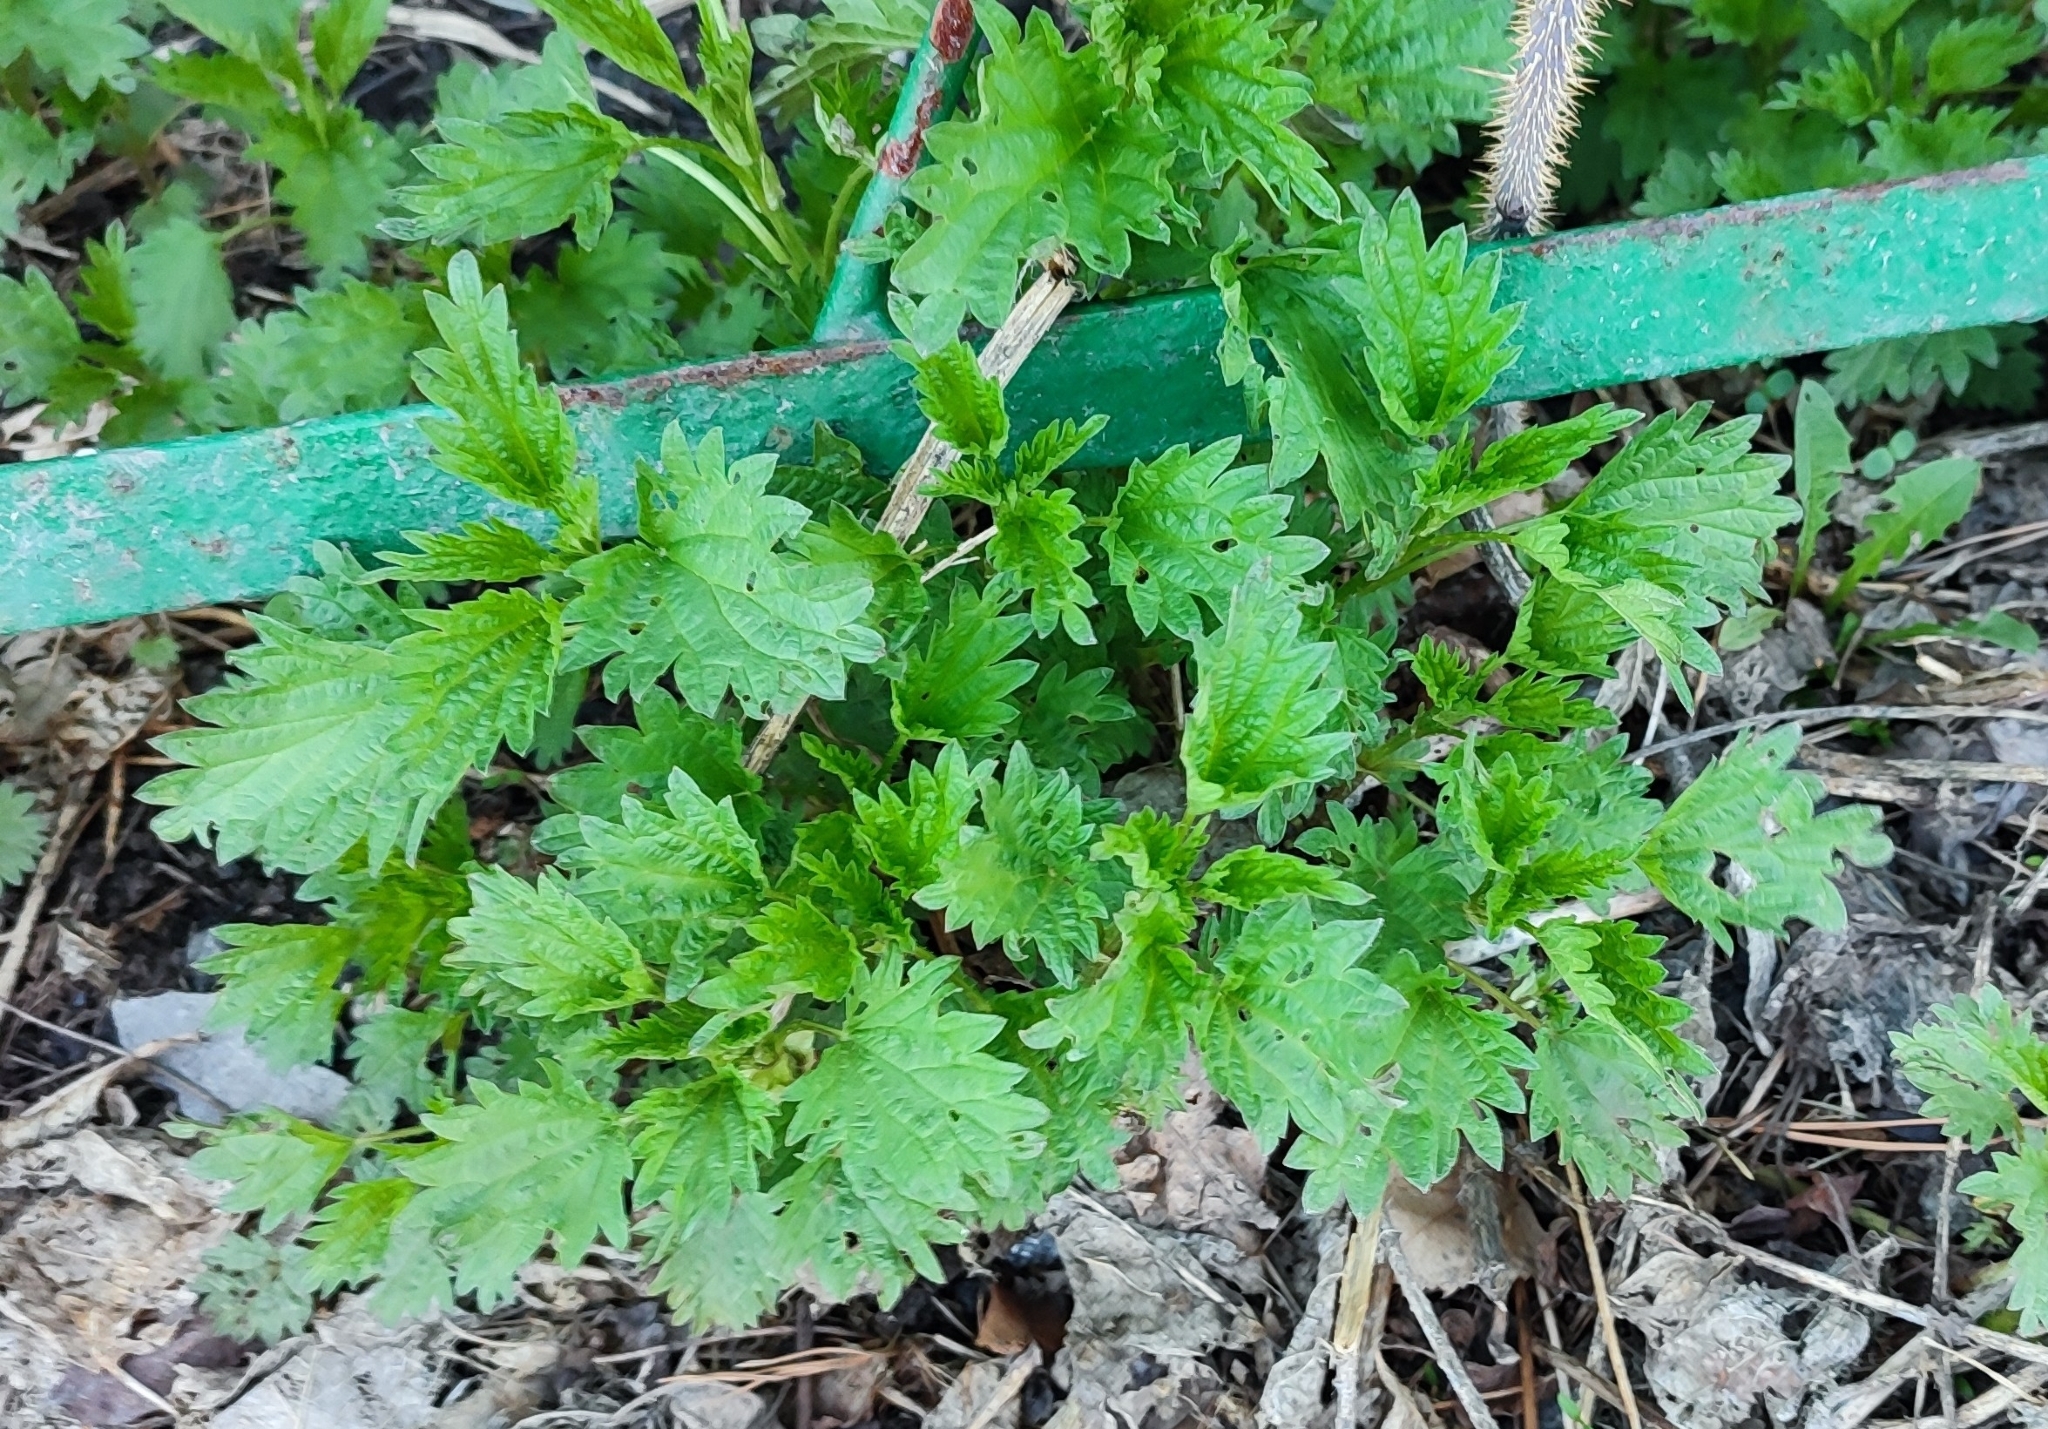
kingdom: Plantae
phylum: Tracheophyta
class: Magnoliopsida
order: Rosales
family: Urticaceae
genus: Urtica
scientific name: Urtica dioica
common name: Common nettle
